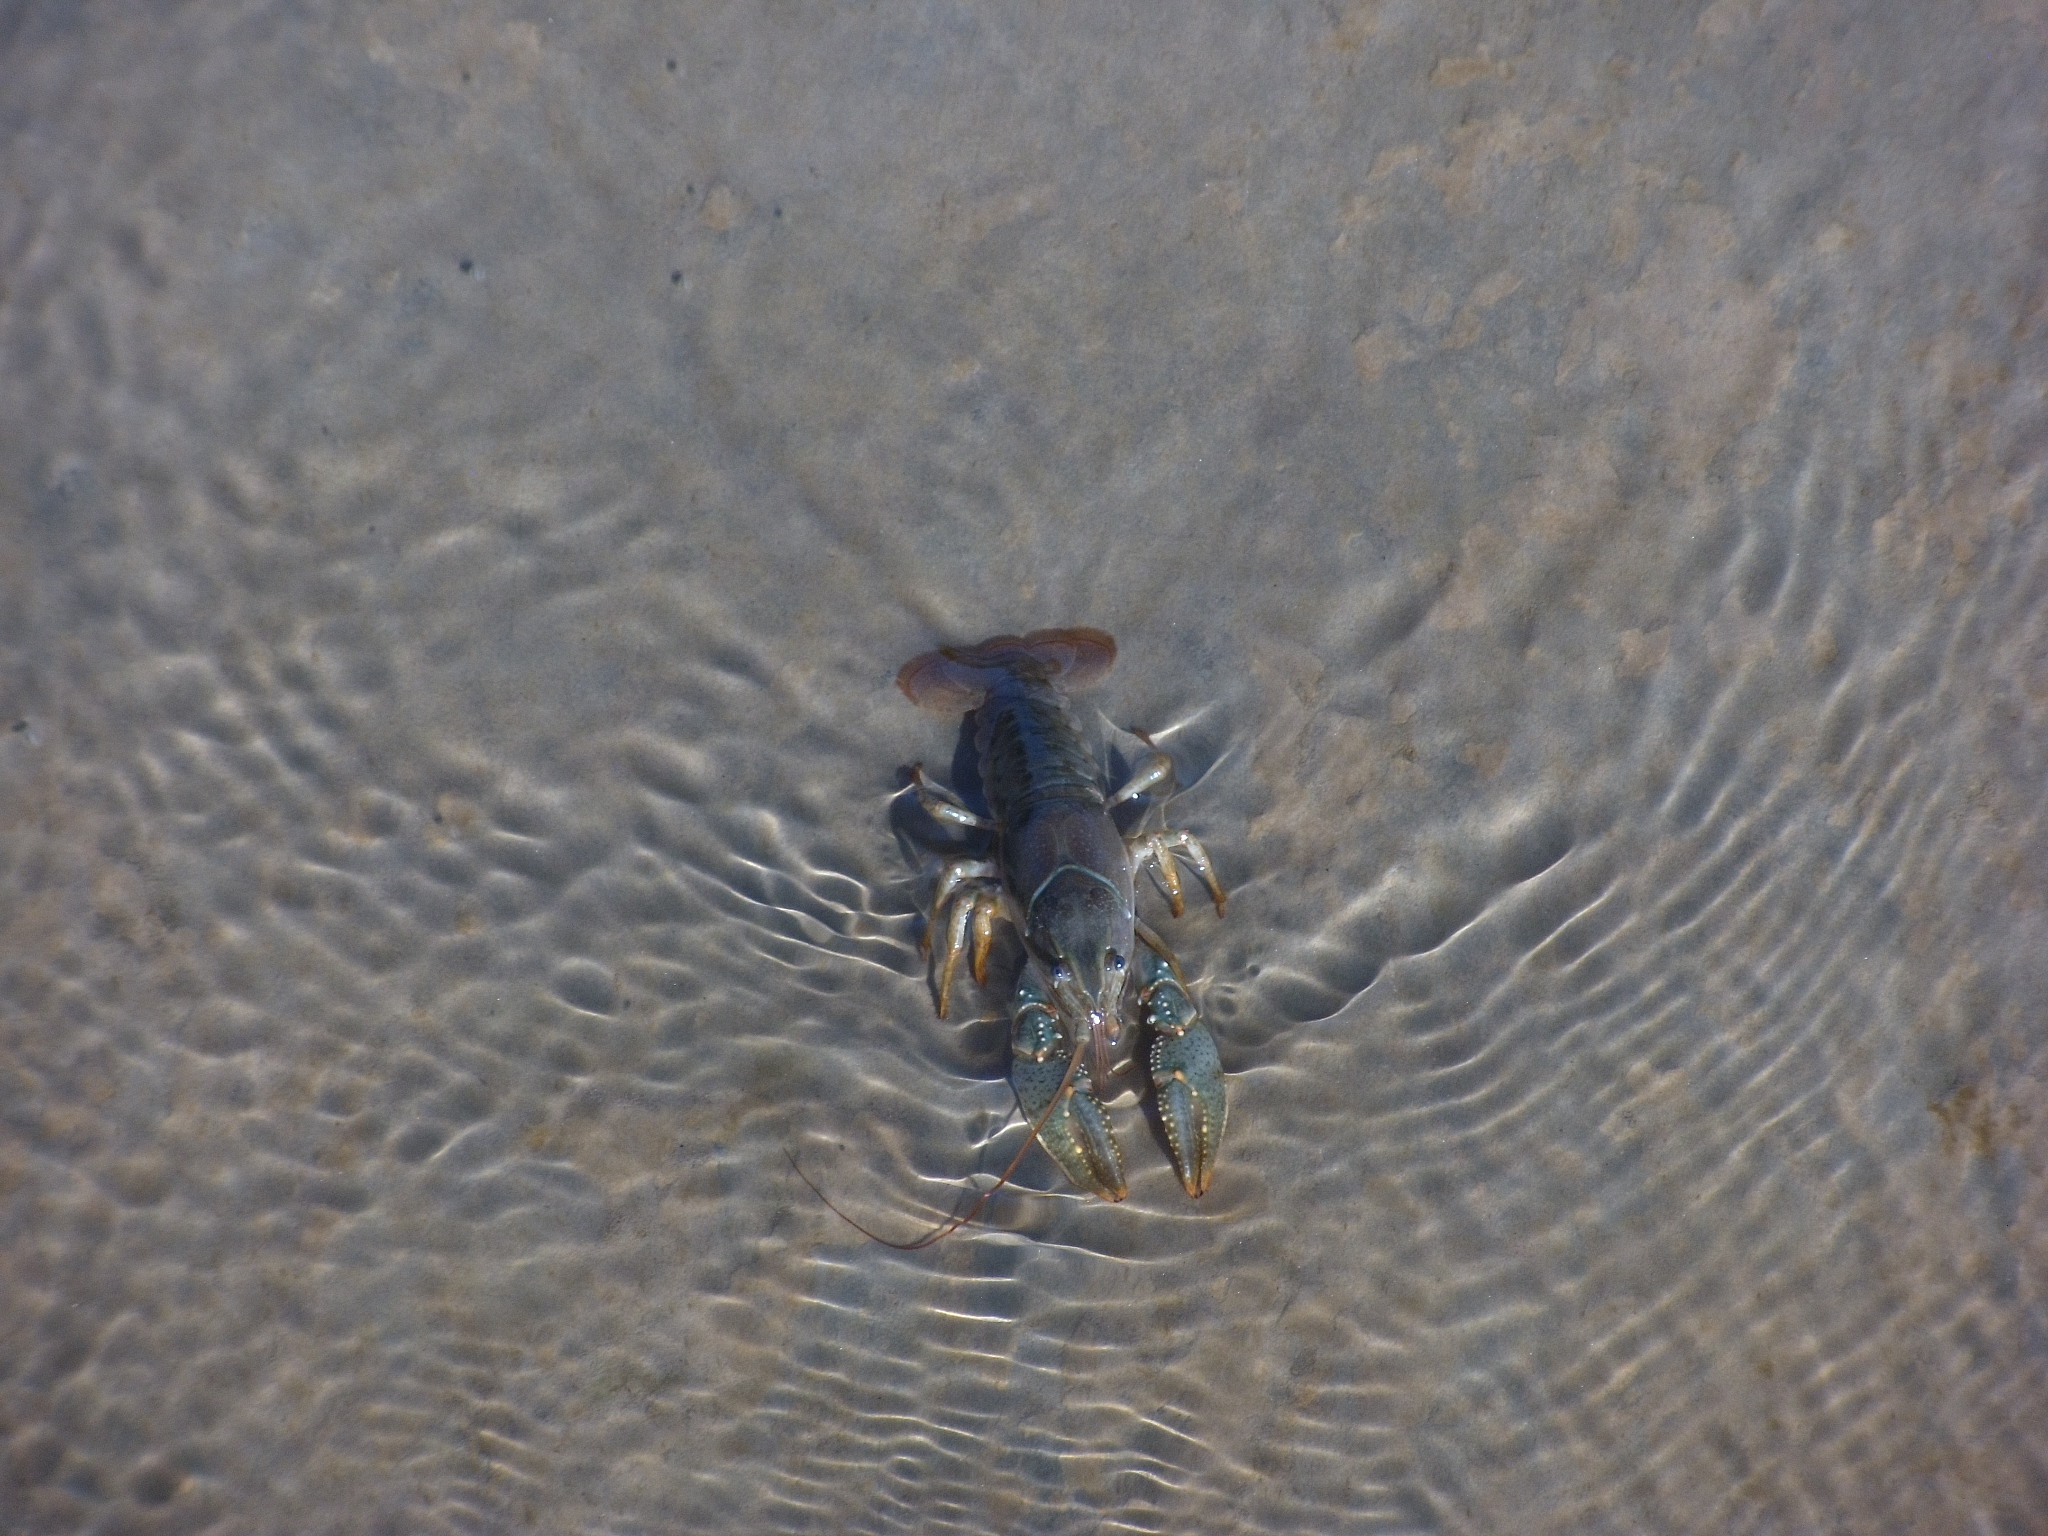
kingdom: Animalia
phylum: Arthropoda
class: Malacostraca
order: Decapoda
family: Cambaridae
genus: Faxonius
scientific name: Faxonius virilis
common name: Virile crayfish
